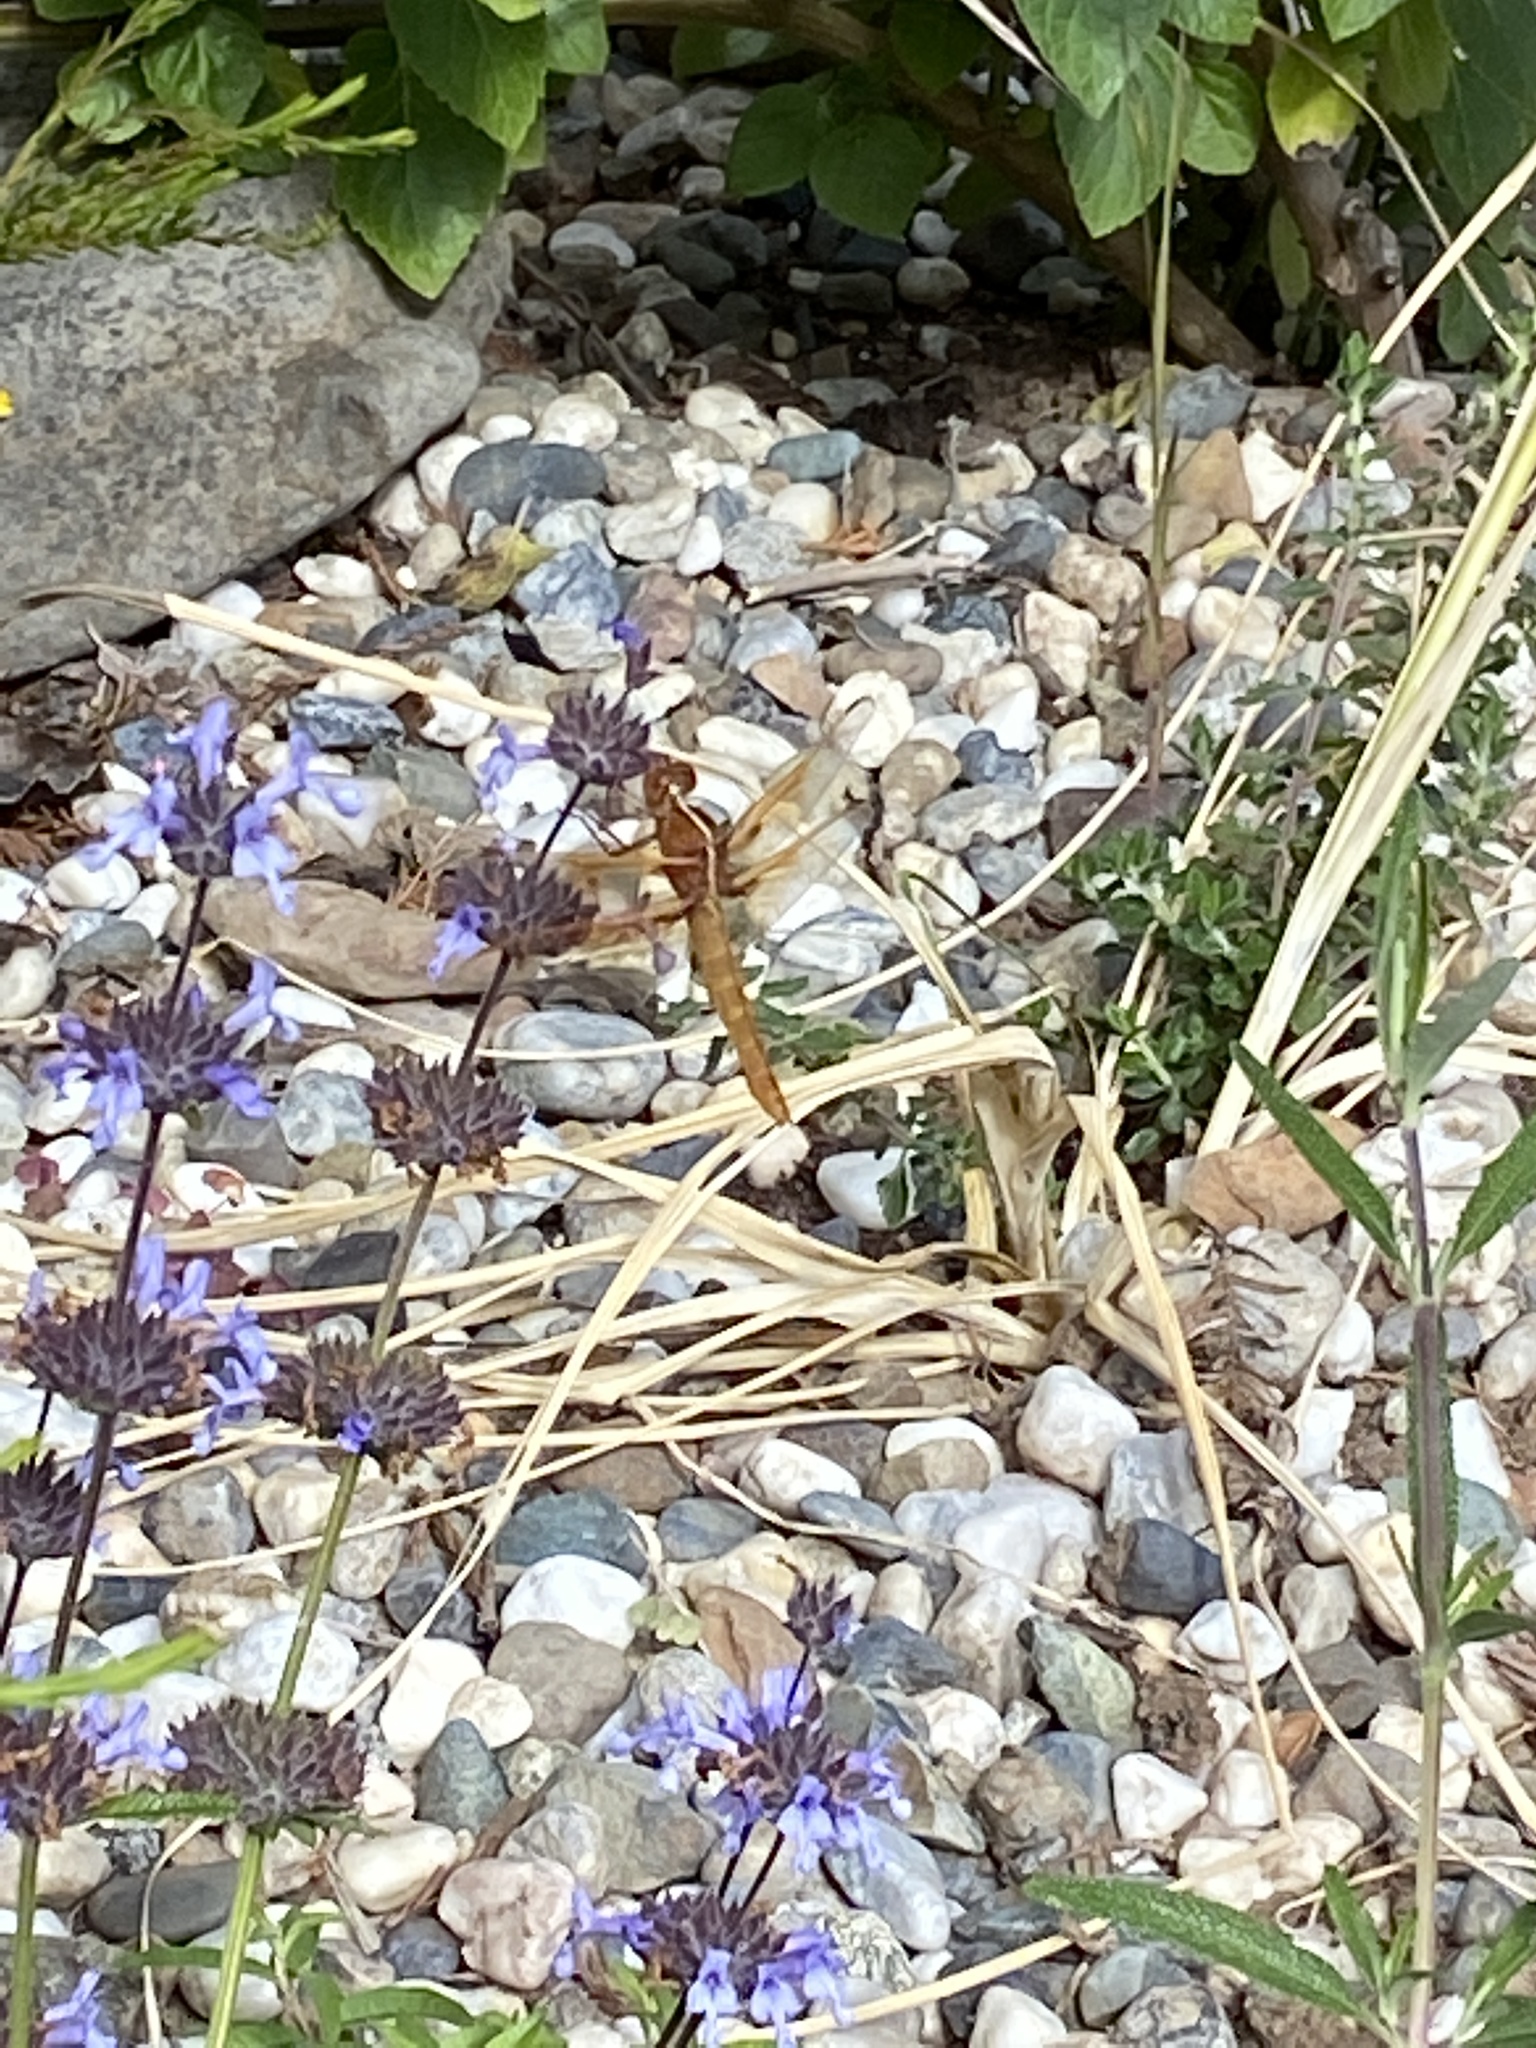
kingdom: Animalia
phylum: Arthropoda
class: Insecta
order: Odonata
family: Libellulidae
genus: Libellula
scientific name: Libellula saturata
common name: Flame skimmer
